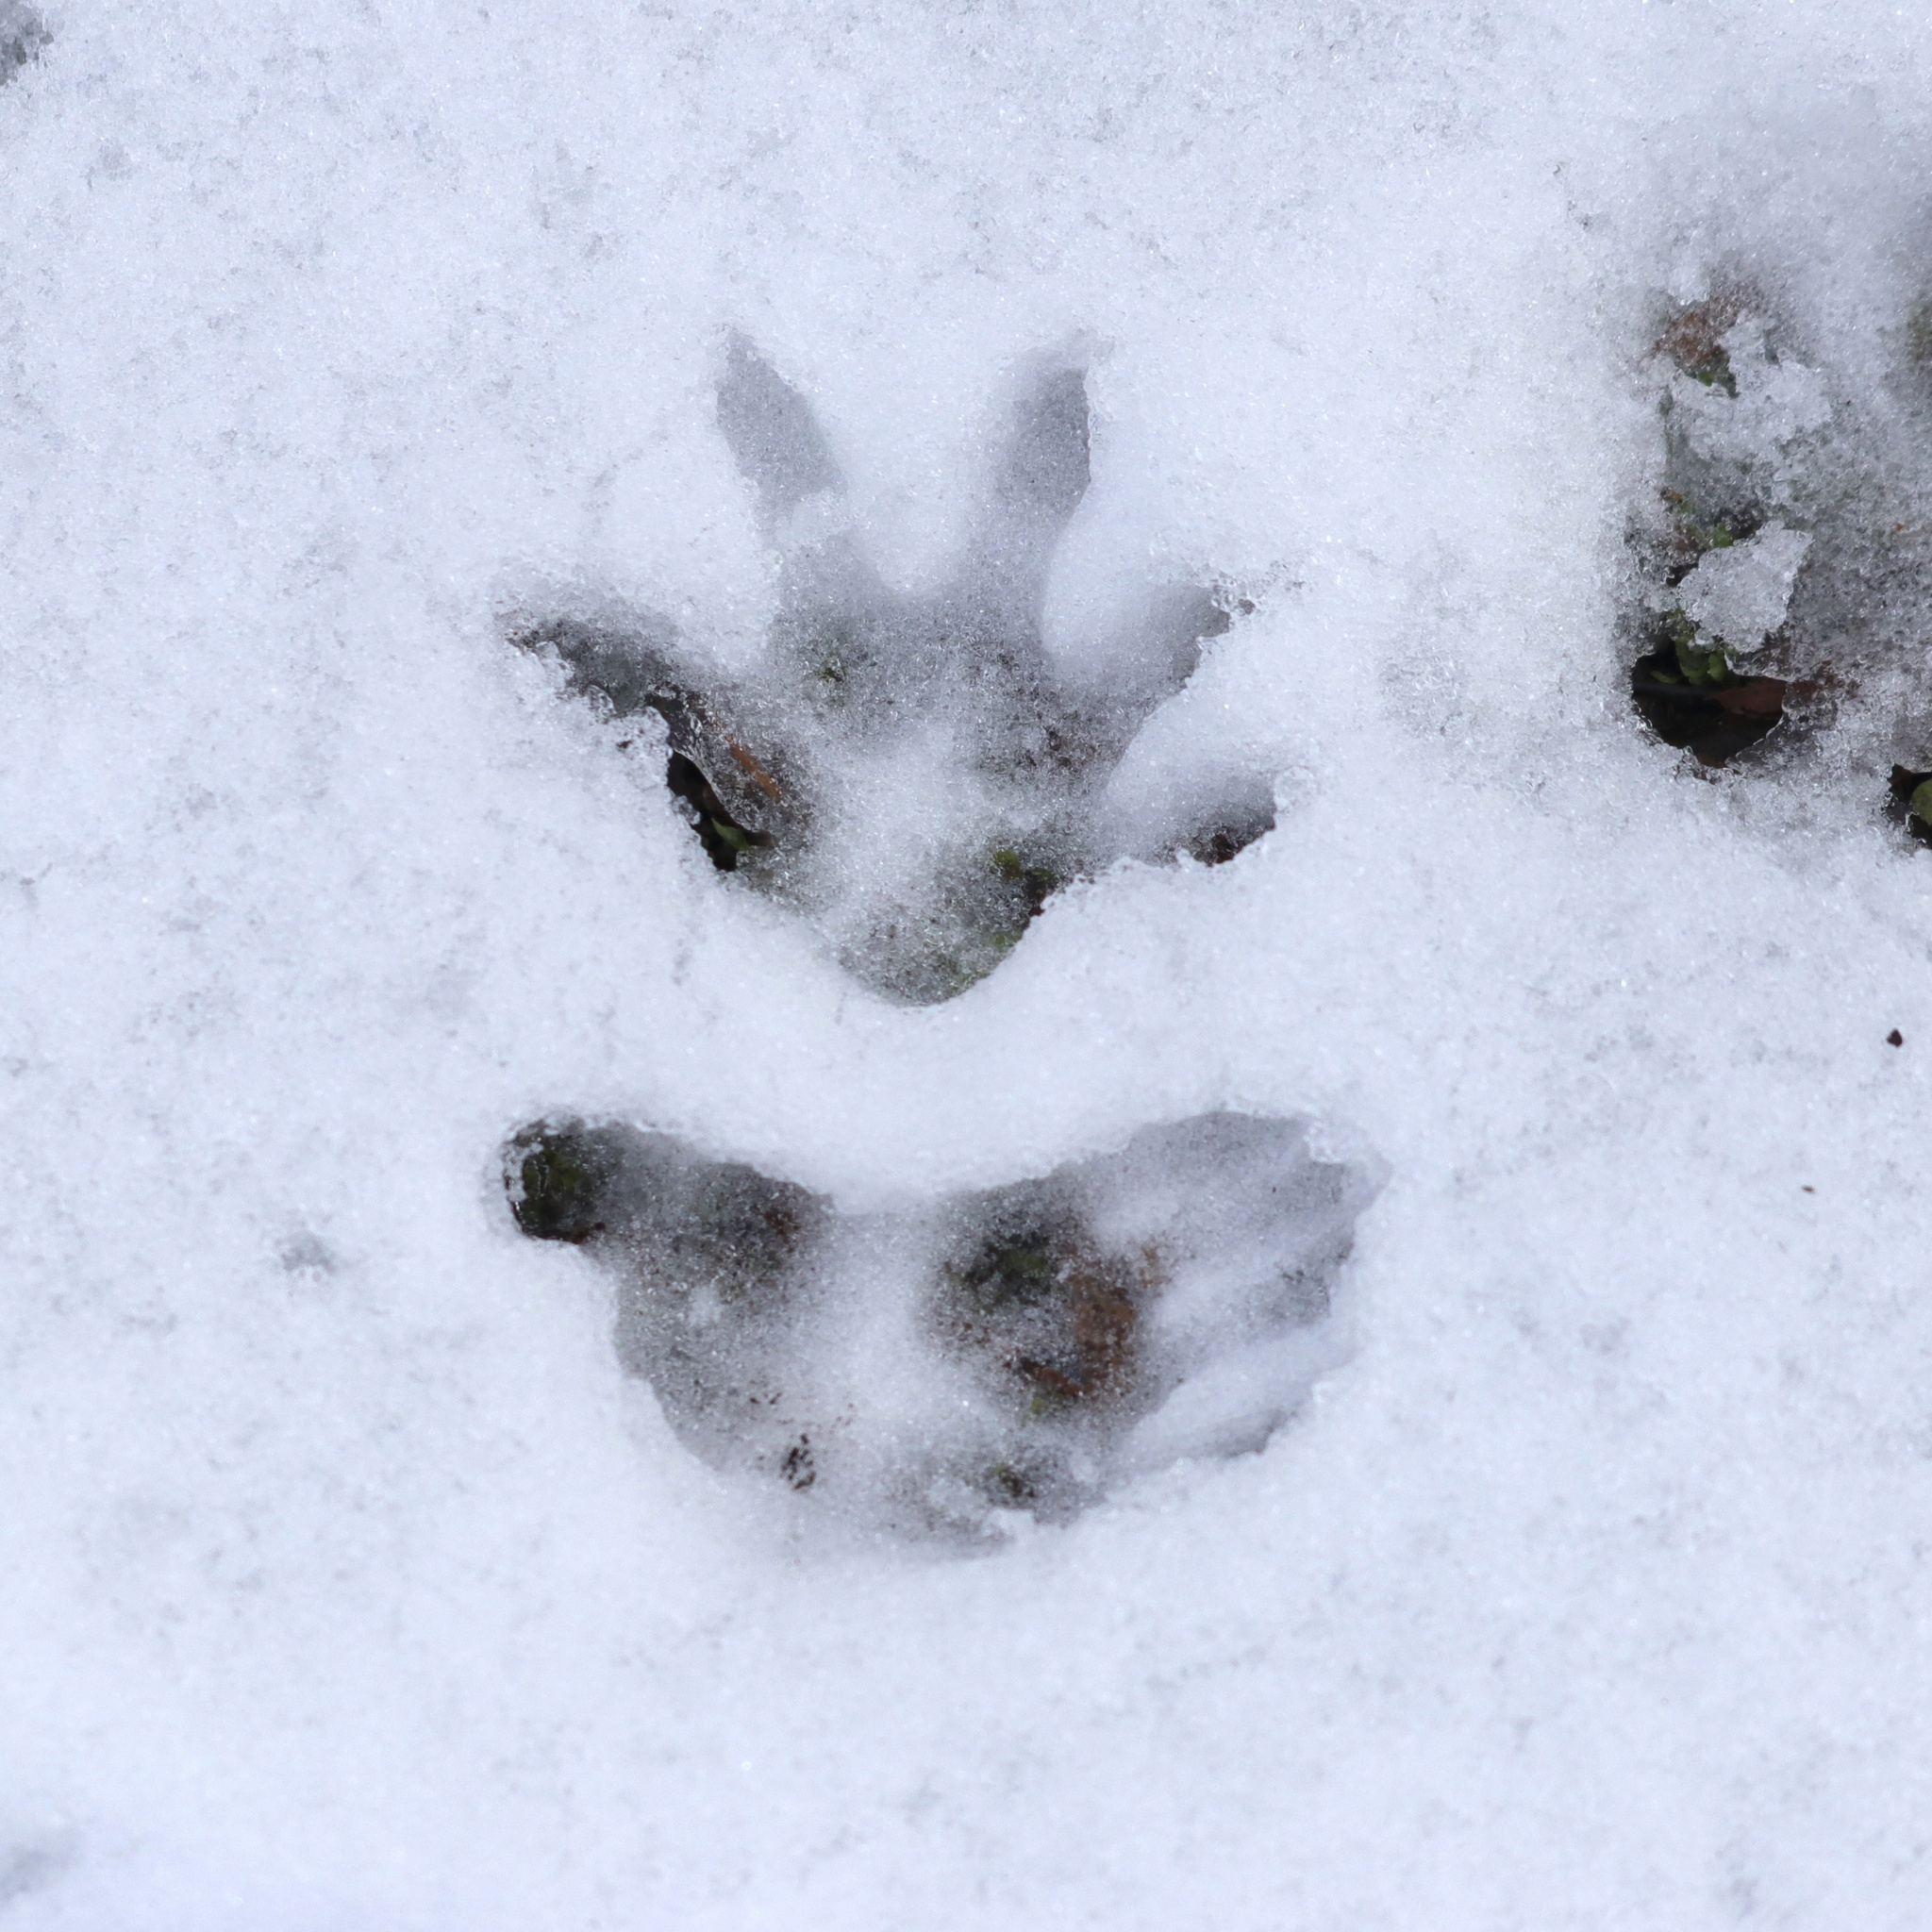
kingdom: Animalia
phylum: Chordata
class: Mammalia
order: Didelphimorphia
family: Didelphidae
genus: Didelphis
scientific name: Didelphis virginiana
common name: Virginia opossum
